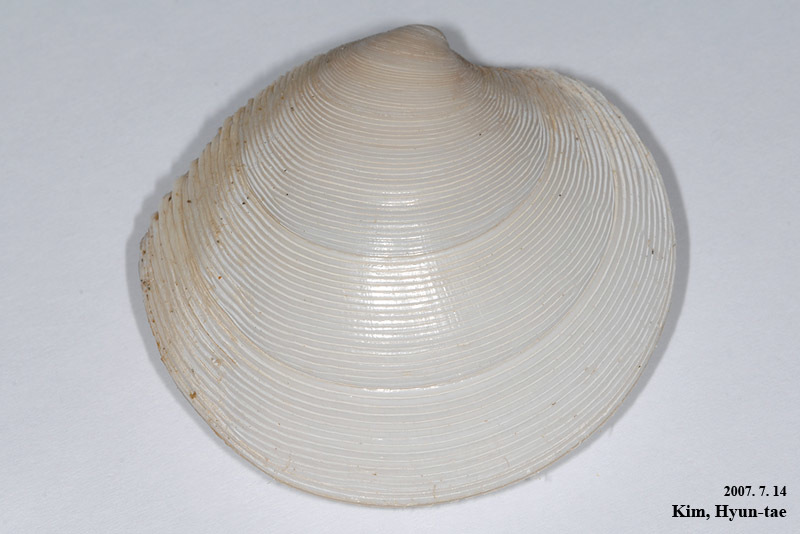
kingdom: Animalia
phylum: Mollusca
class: Bivalvia
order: Venerida
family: Veneridae
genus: Dosinia
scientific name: Dosinia japonica
